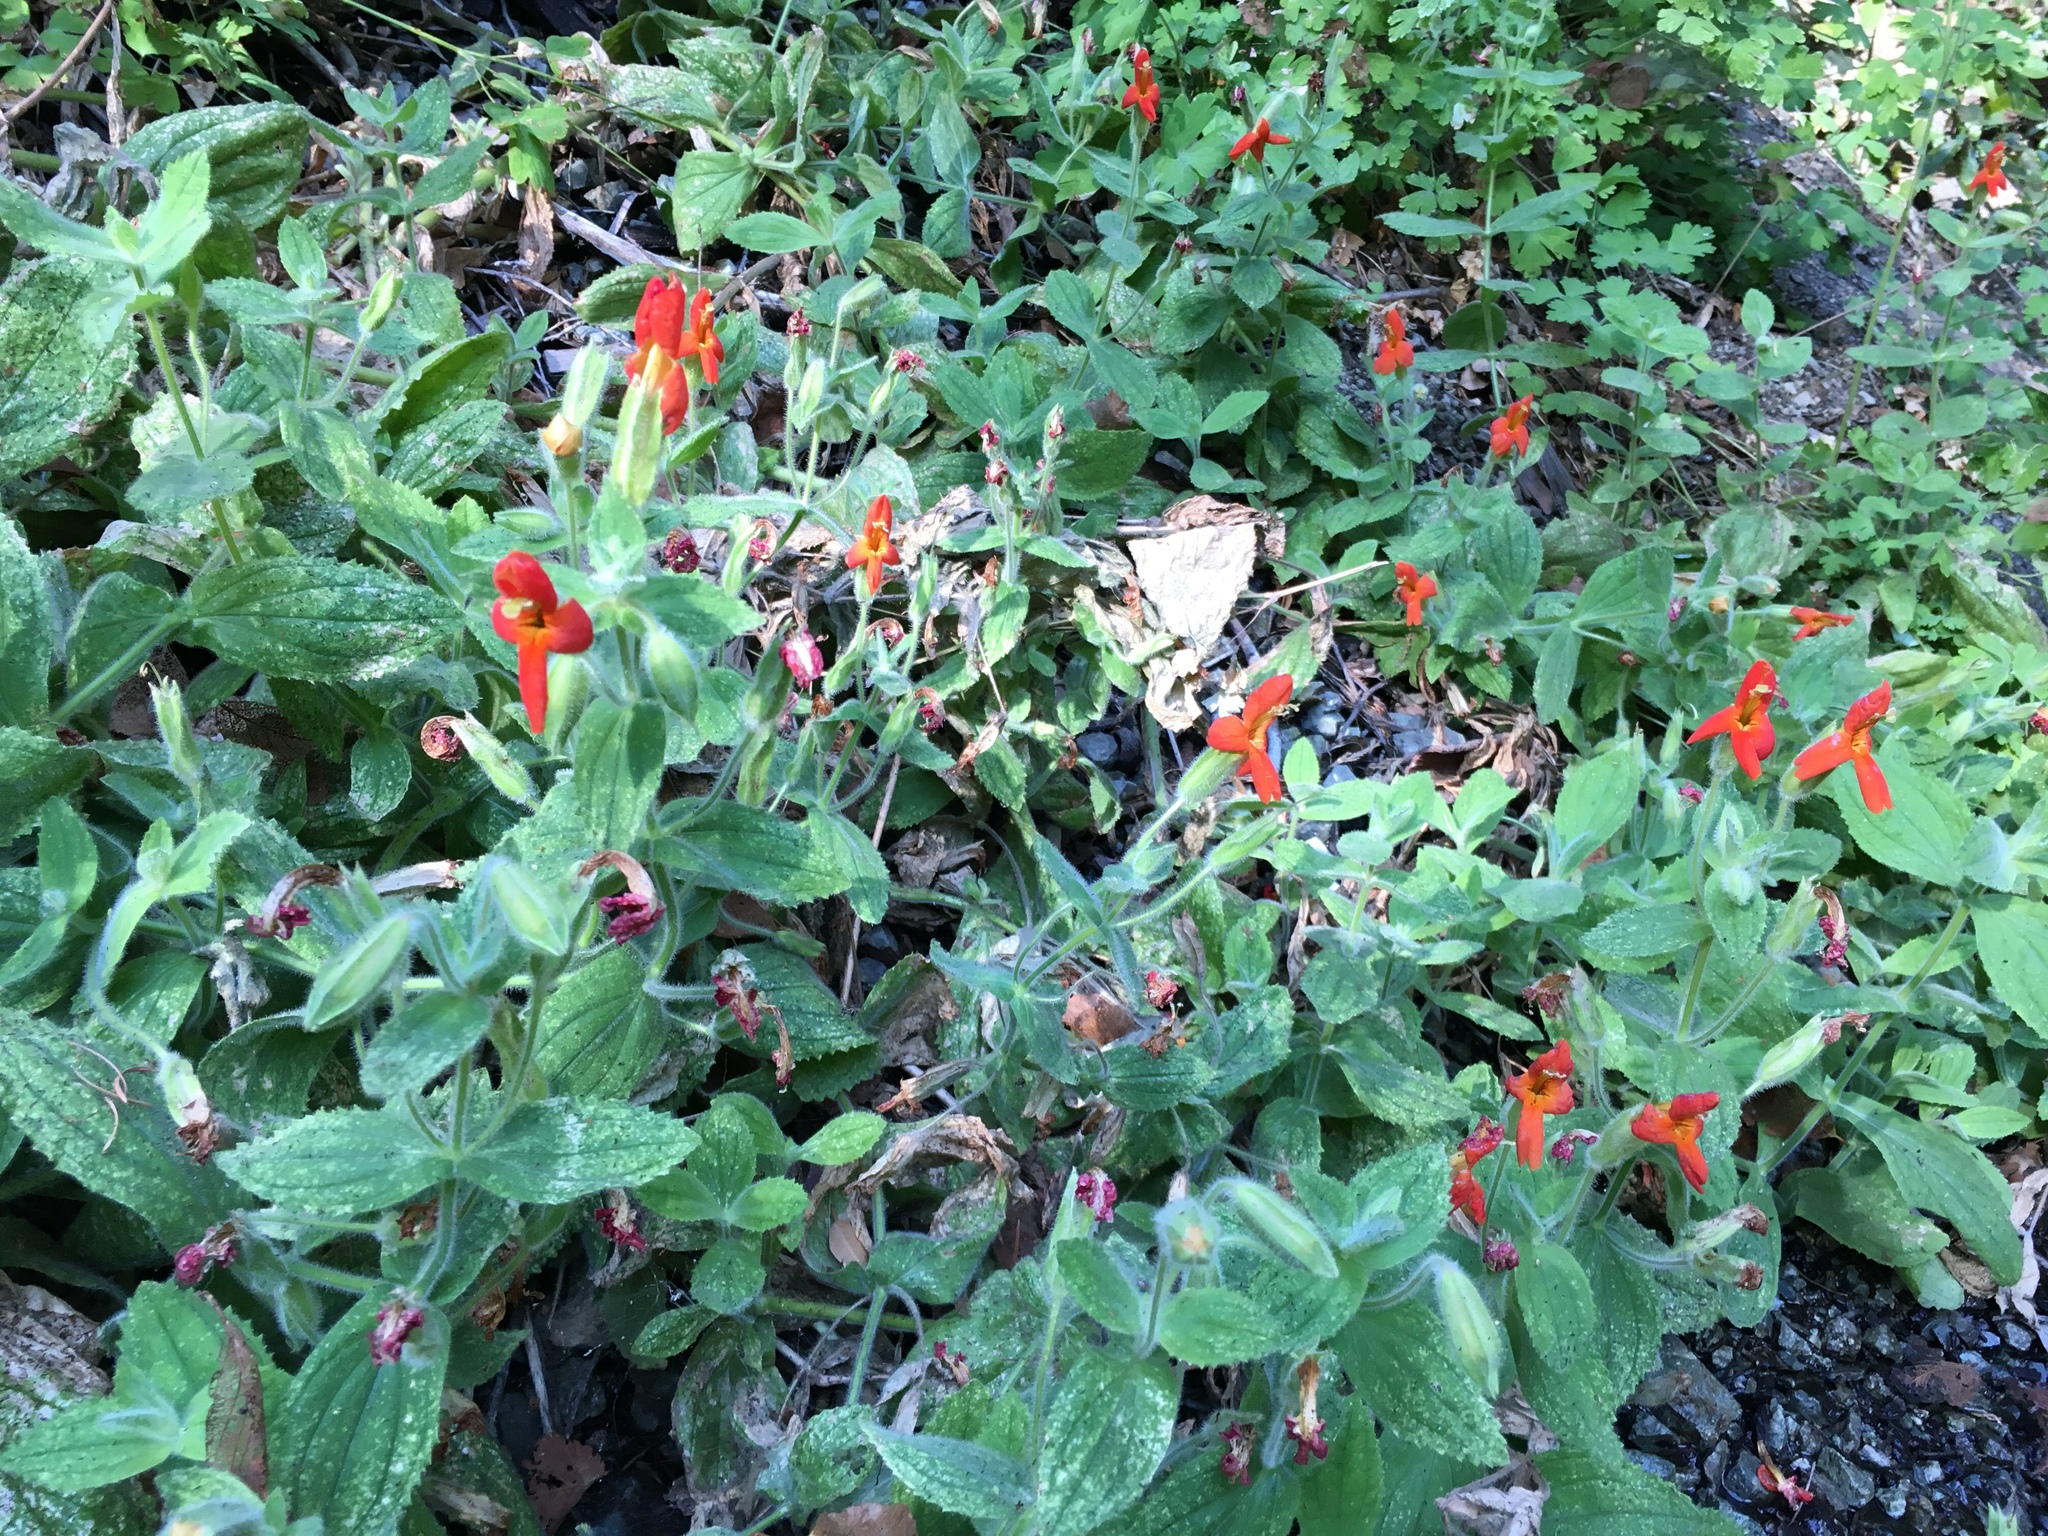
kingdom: Plantae
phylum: Tracheophyta
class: Magnoliopsida
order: Lamiales
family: Phrymaceae
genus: Erythranthe
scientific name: Erythranthe cardinalis
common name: Scarlet monkey-flower
